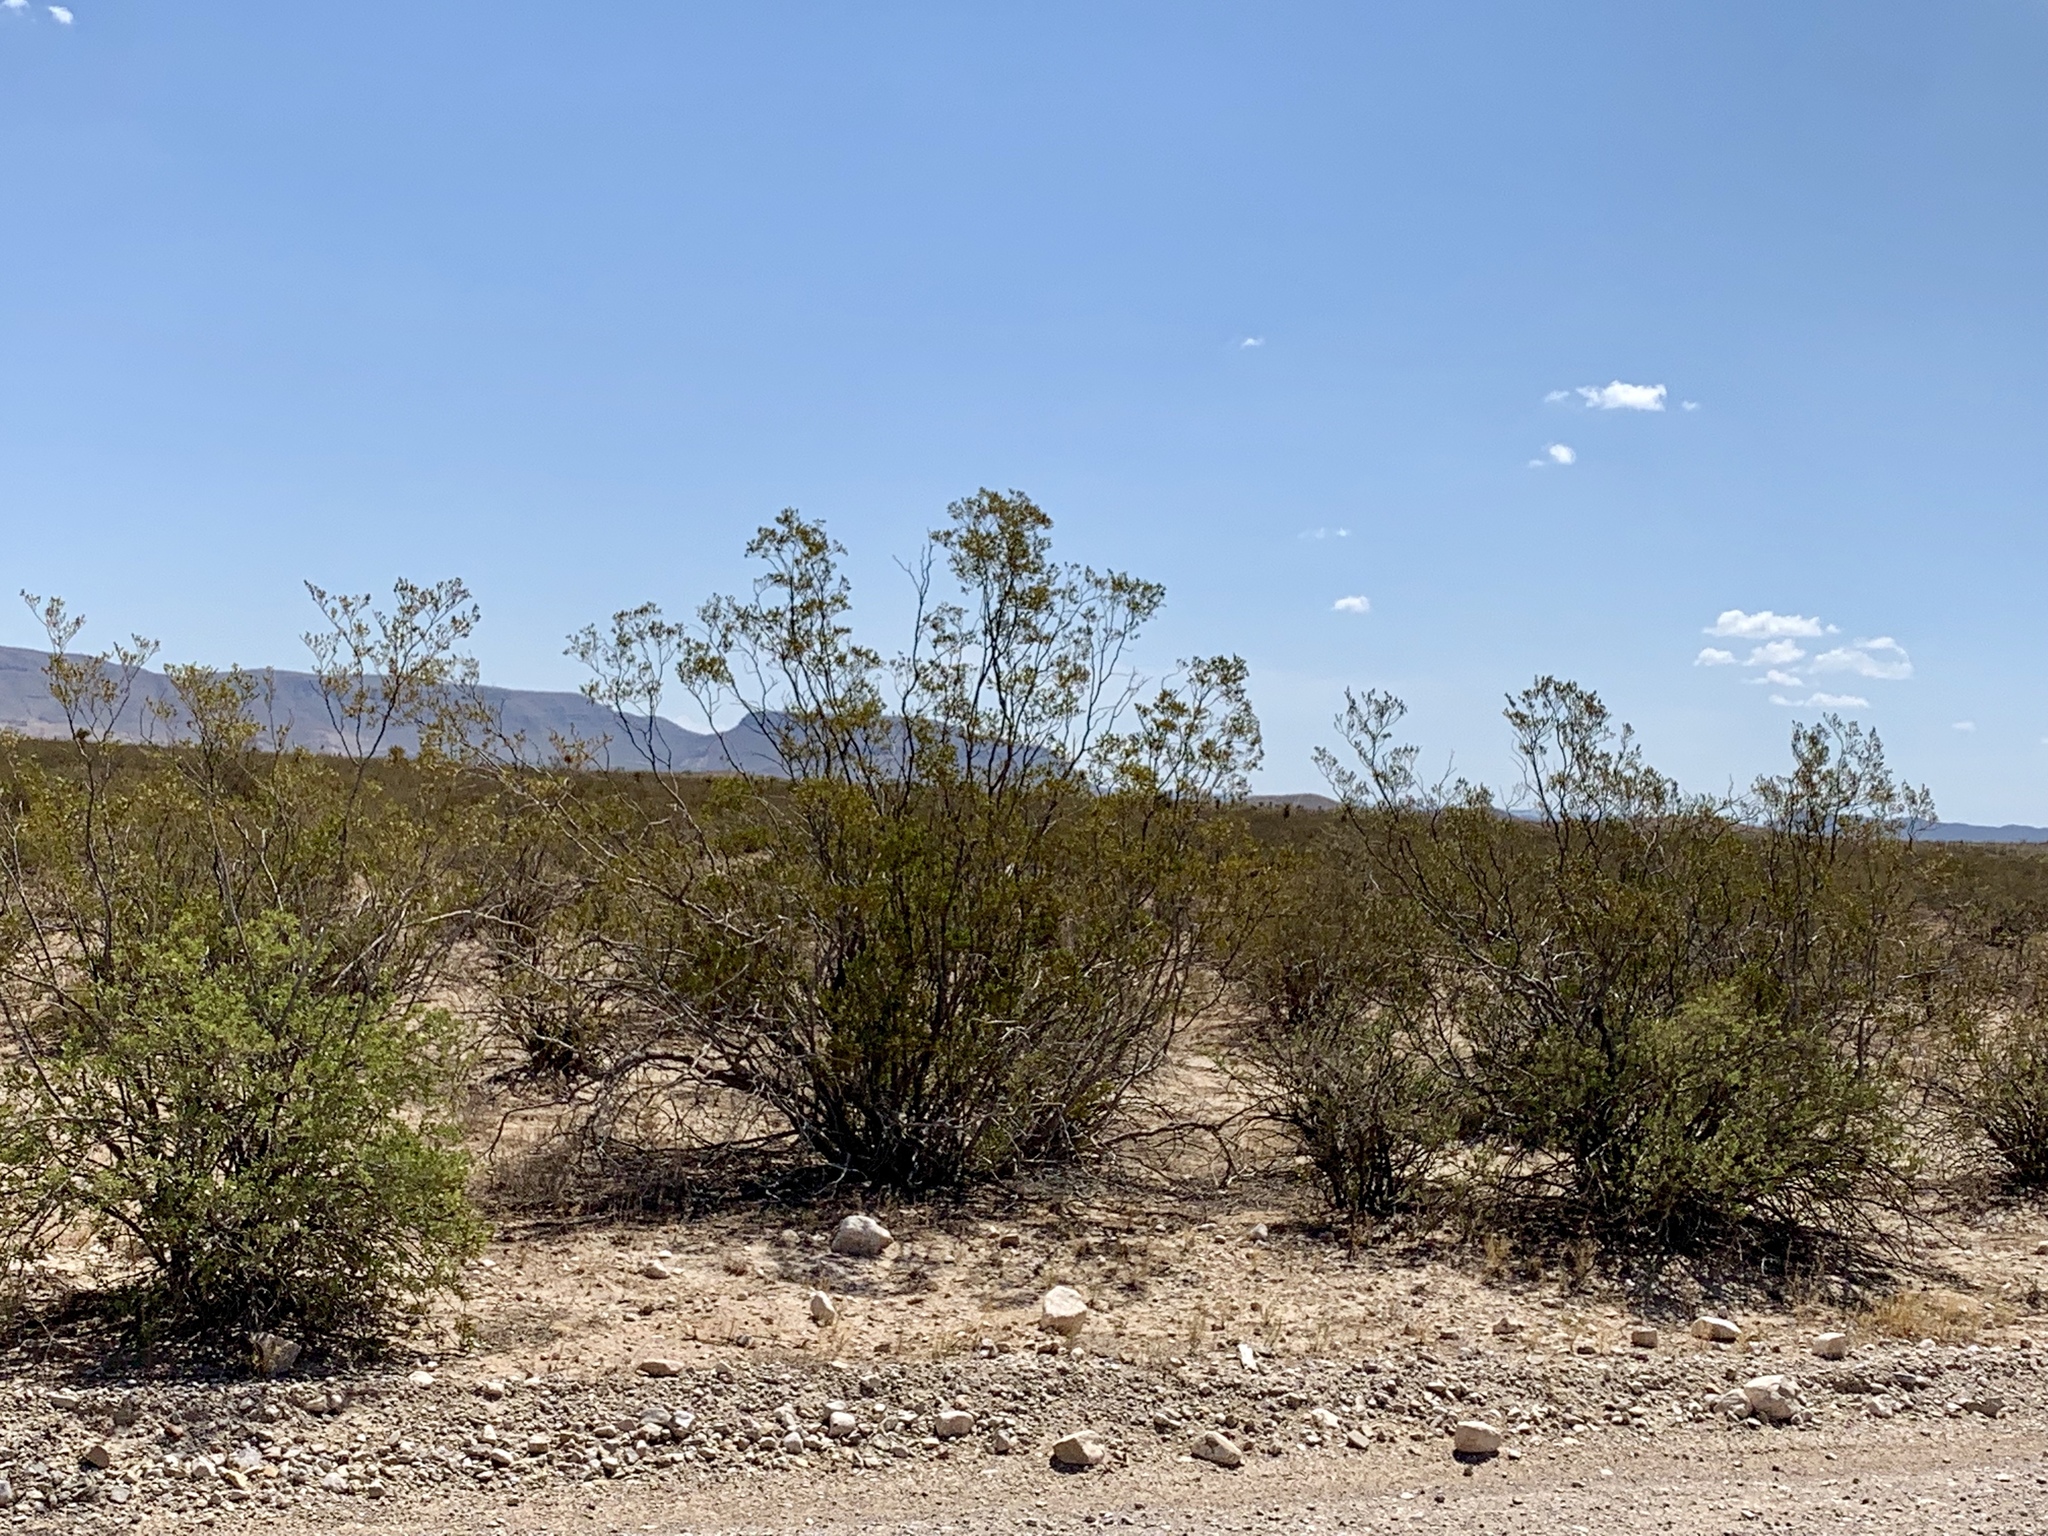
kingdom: Plantae
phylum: Tracheophyta
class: Magnoliopsida
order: Zygophyllales
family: Zygophyllaceae
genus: Larrea
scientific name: Larrea tridentata
